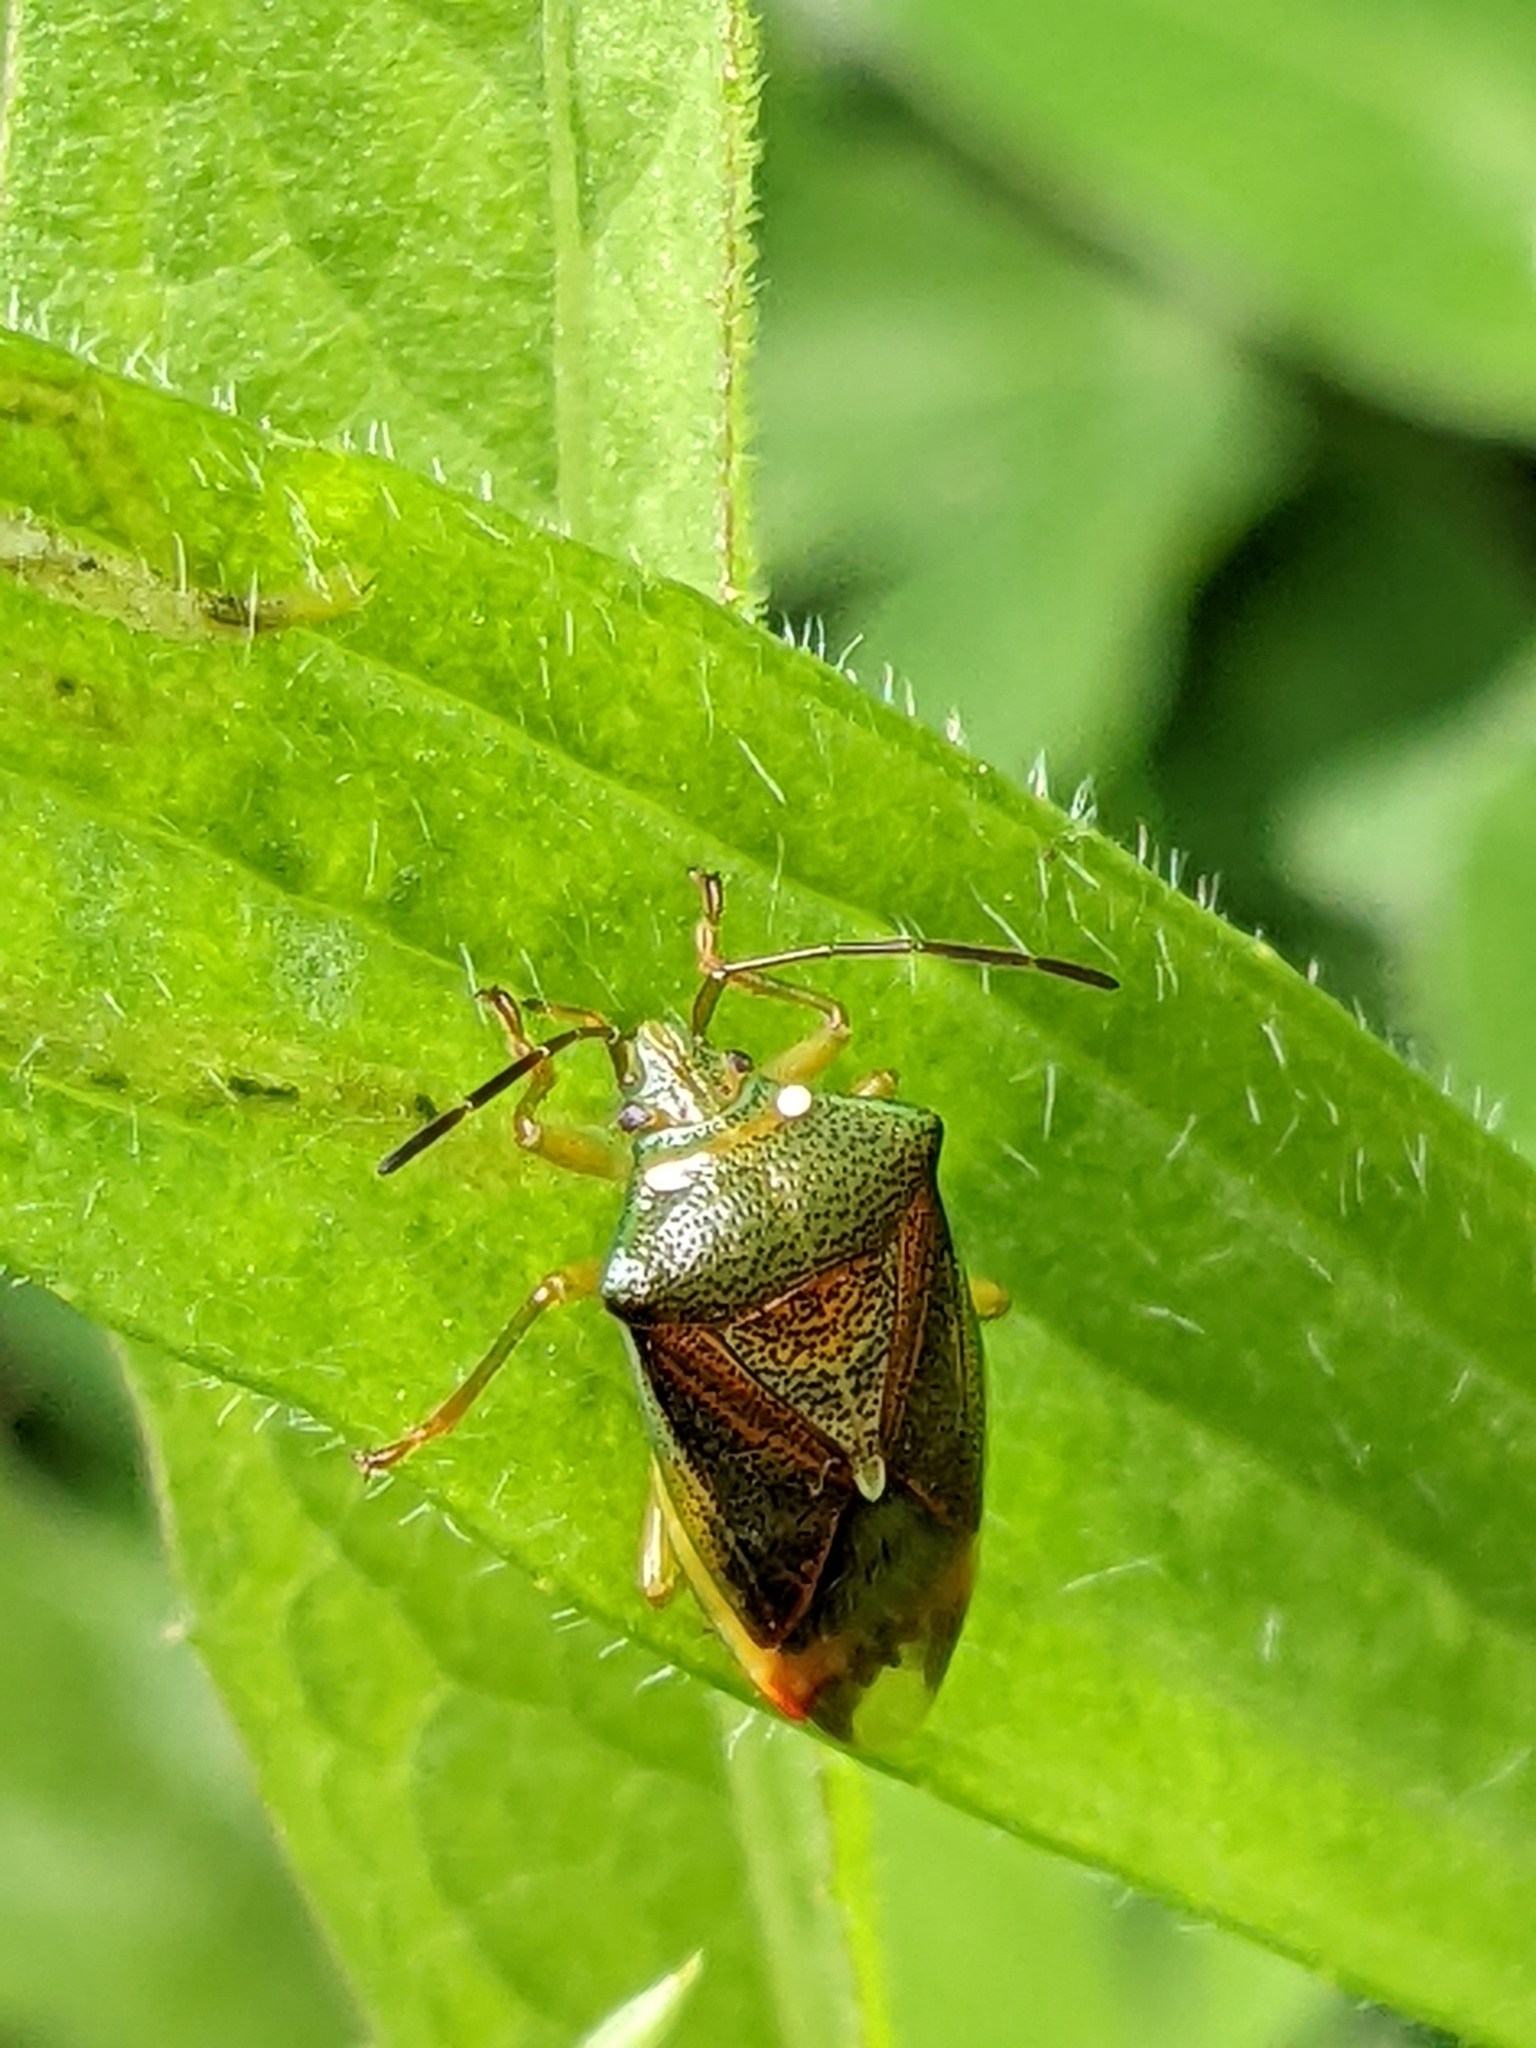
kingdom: Animalia
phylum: Arthropoda
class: Insecta
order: Hemiptera
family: Acanthosomatidae
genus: Elasmostethus
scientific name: Elasmostethus interstinctus
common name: Birch shieldbug
